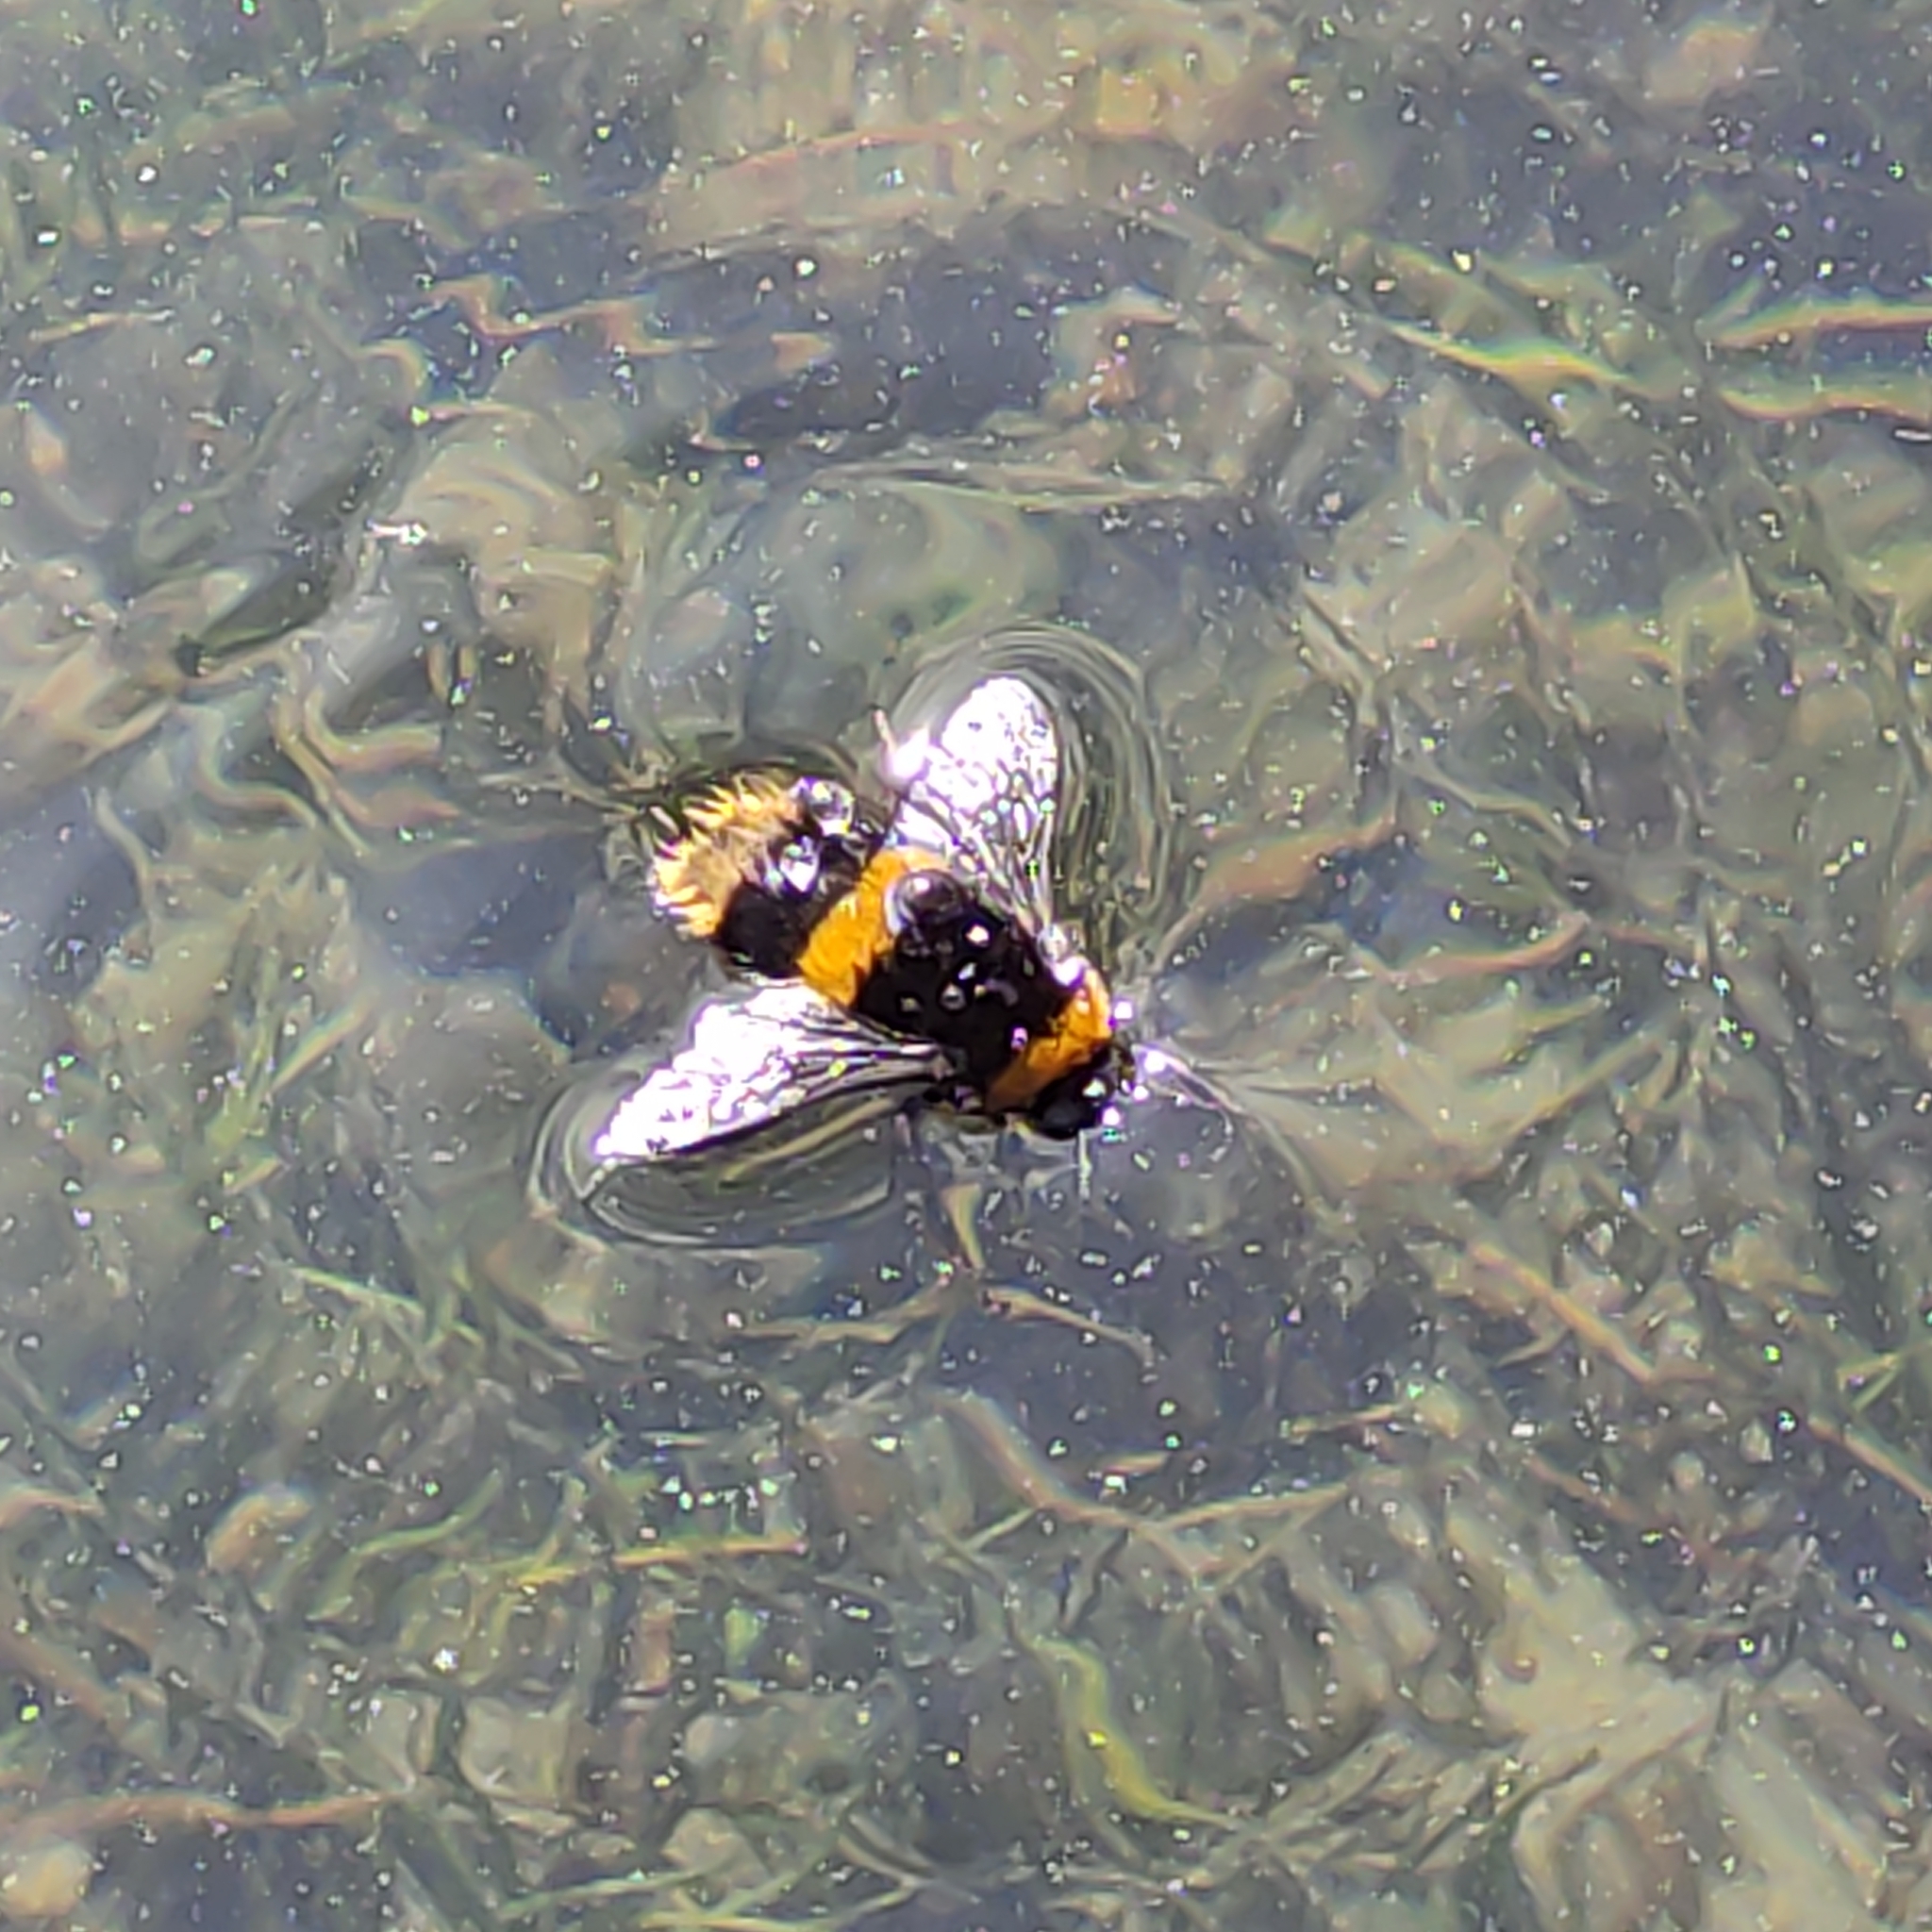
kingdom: Animalia
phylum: Arthropoda
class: Insecta
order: Hymenoptera
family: Apidae
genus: Bombus
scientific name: Bombus terrestris
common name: Buff-tailed bumblebee
